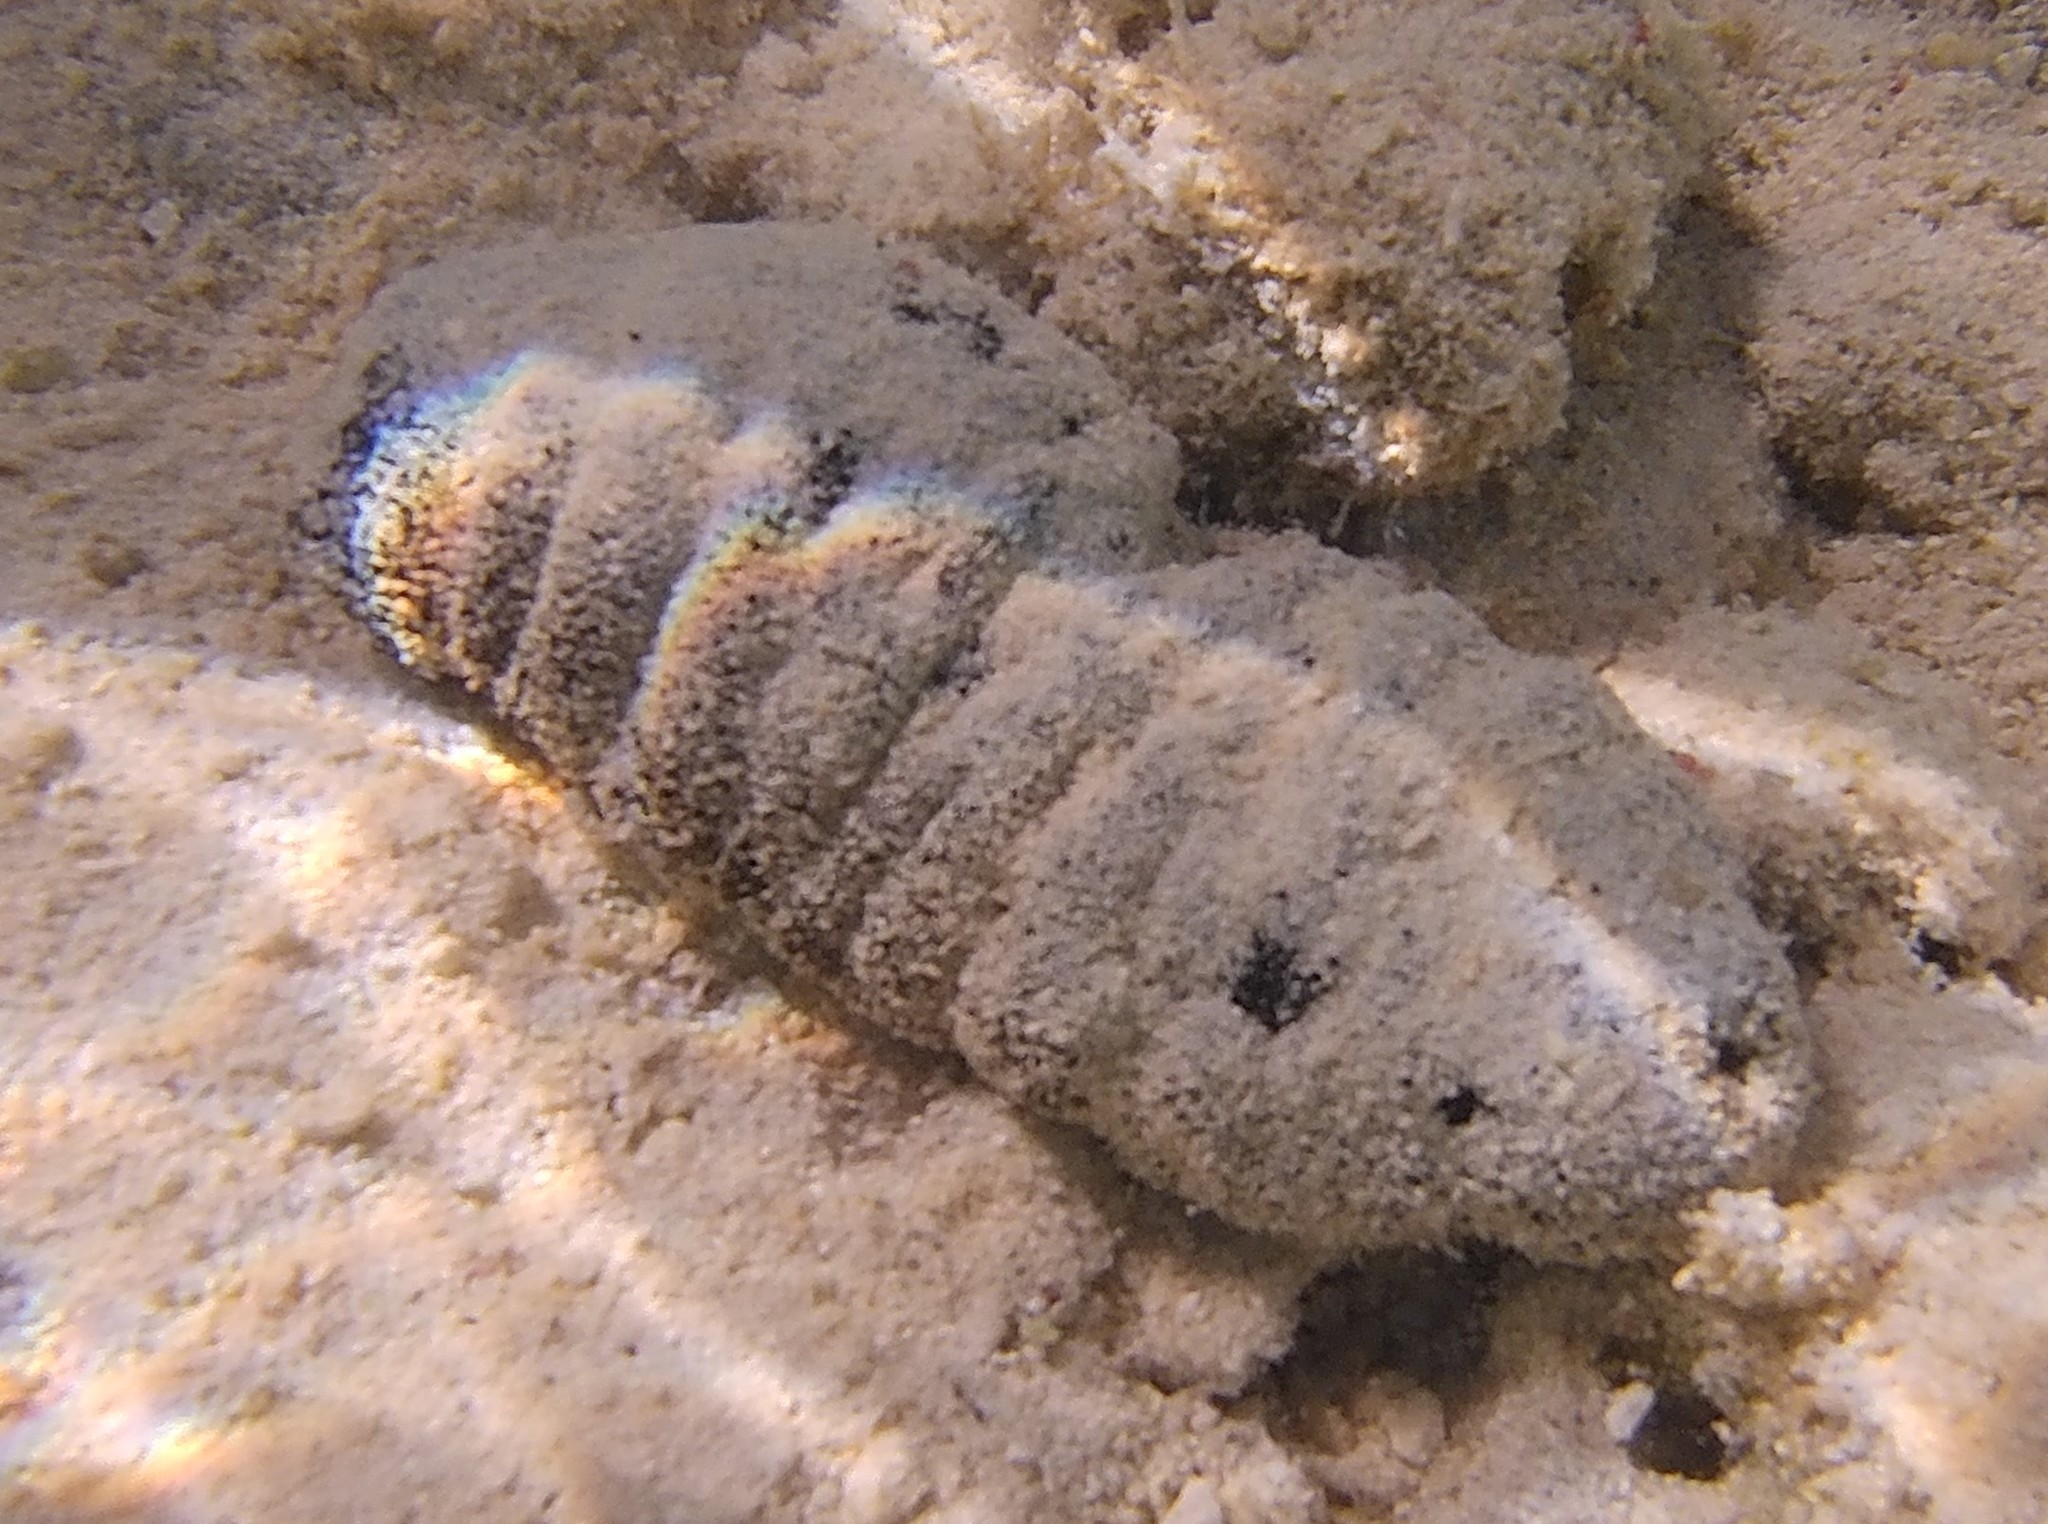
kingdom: Animalia
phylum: Echinodermata
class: Holothuroidea
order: Holothuriida
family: Holothuriidae
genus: Holothuria
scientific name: Holothuria atra
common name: Lollyfish
